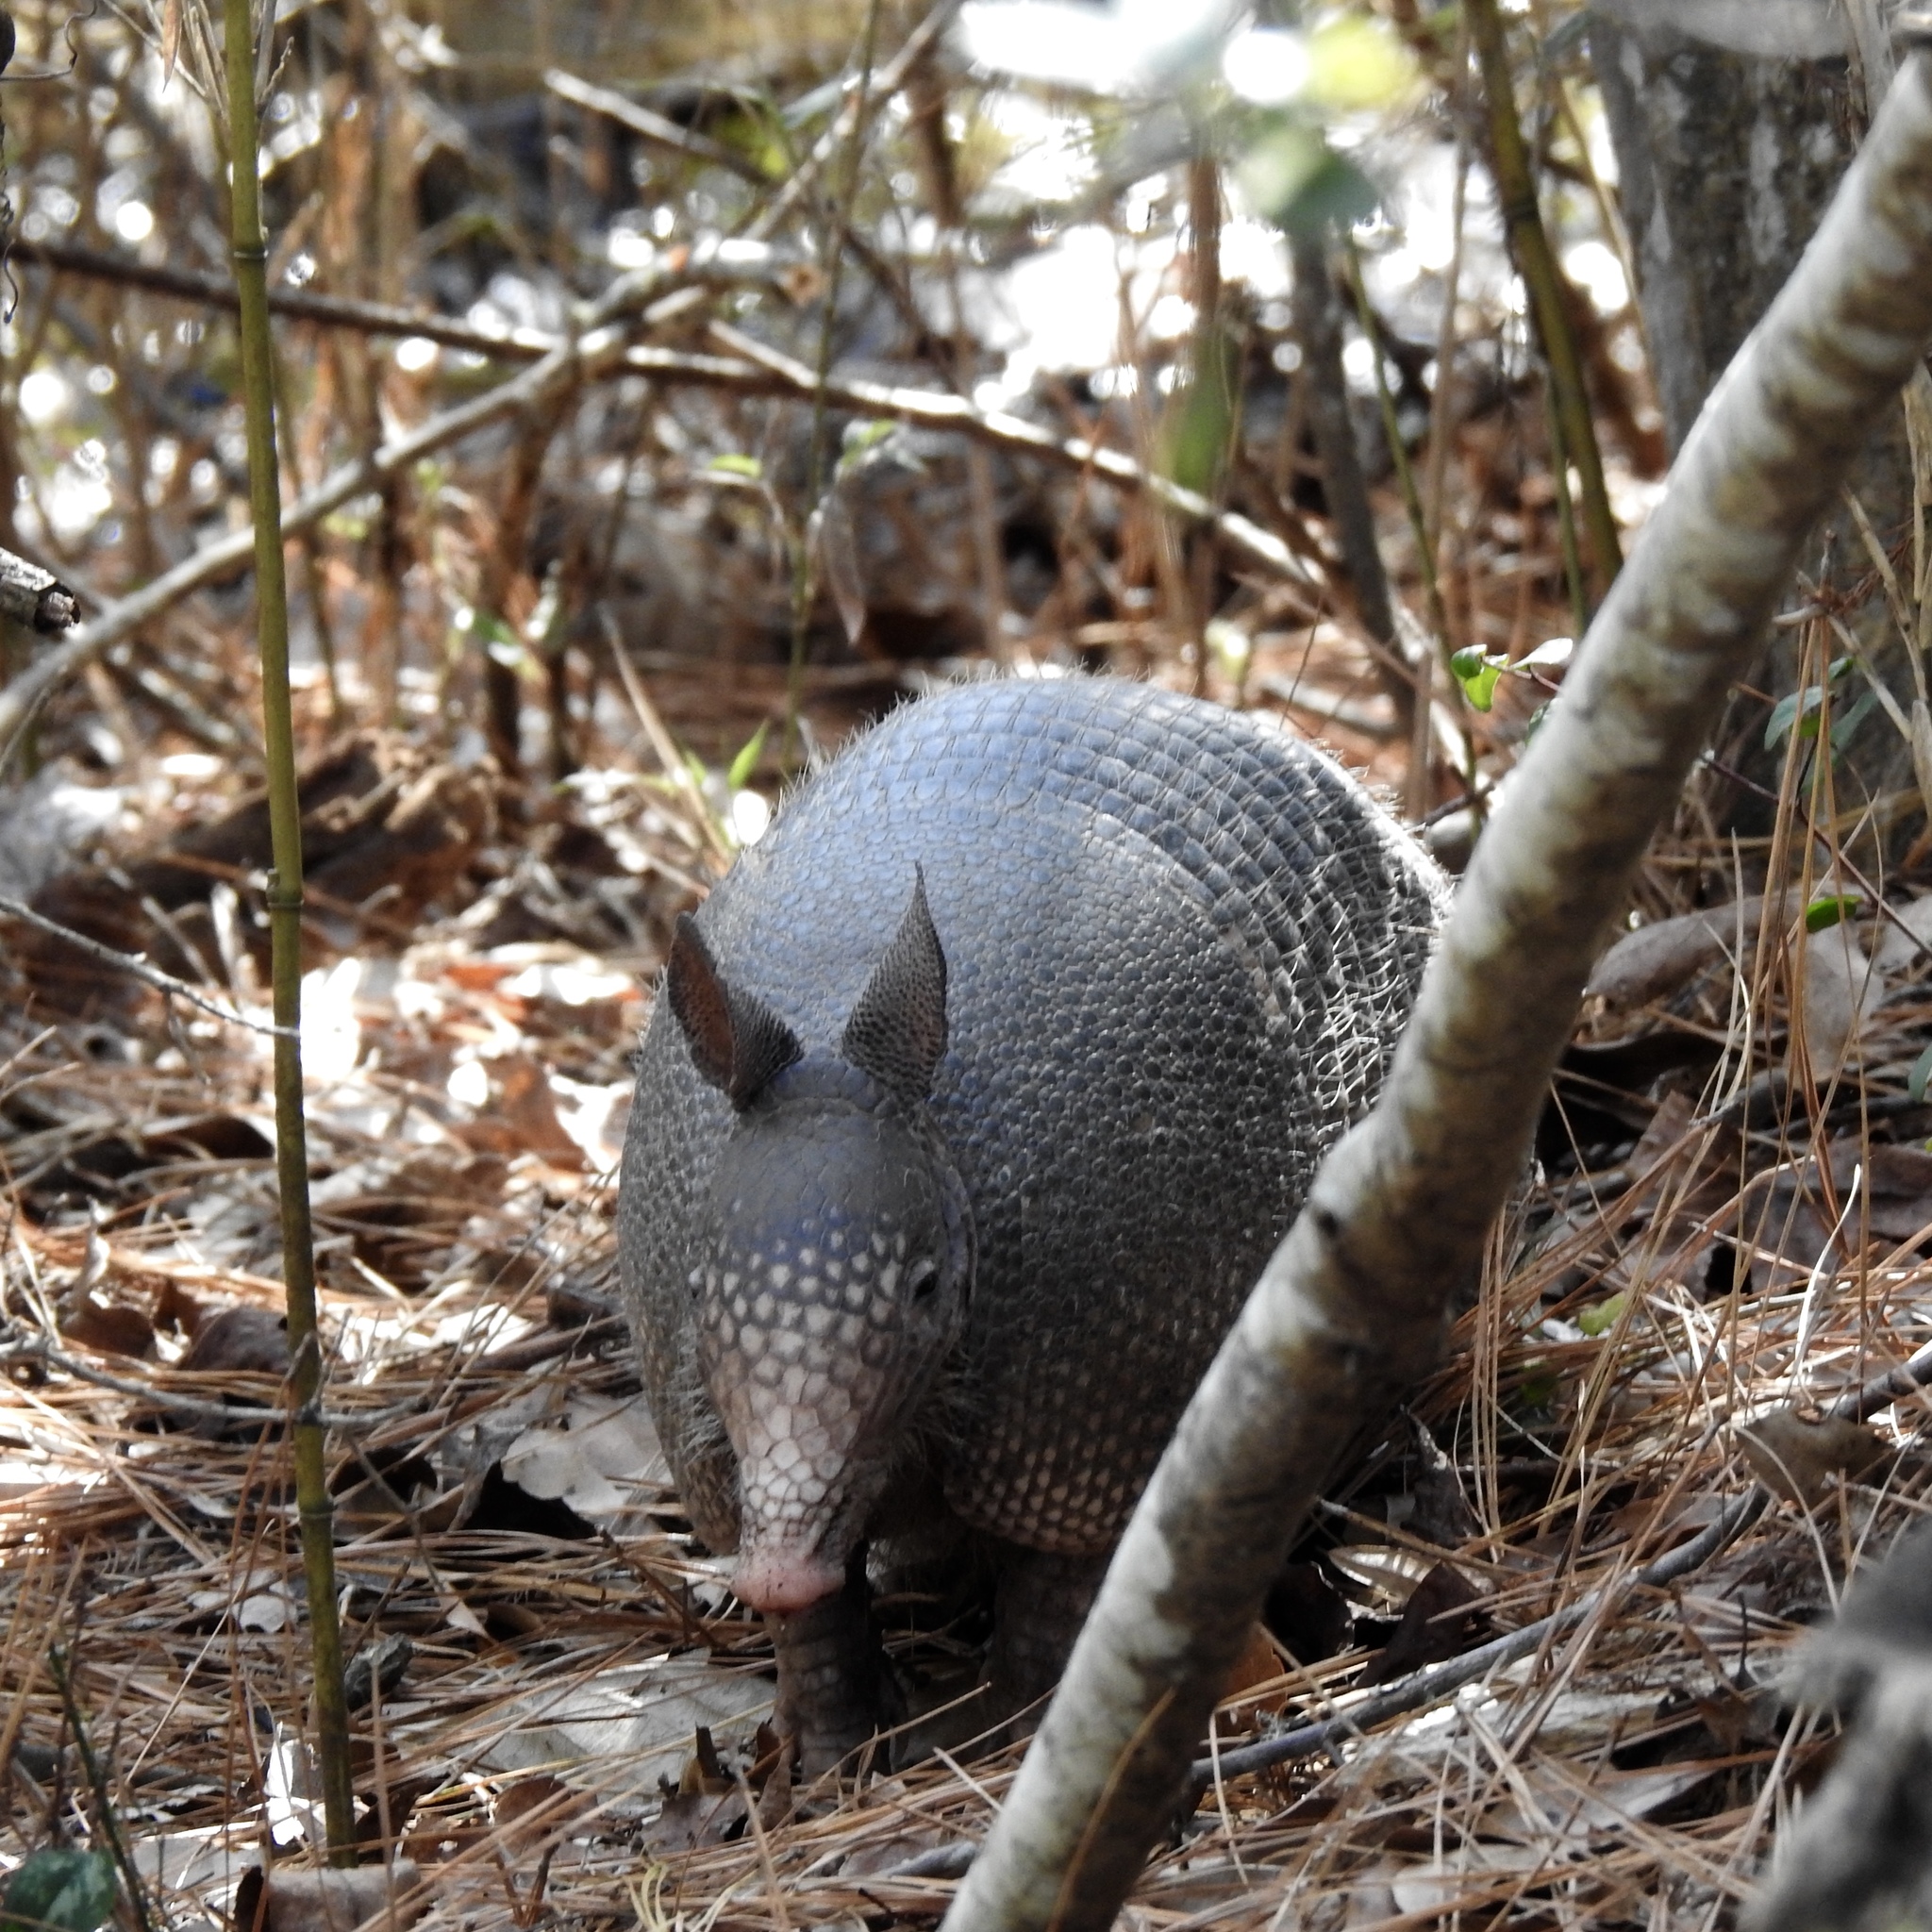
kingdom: Animalia
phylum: Chordata
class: Mammalia
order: Cingulata
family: Dasypodidae
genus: Dasypus
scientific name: Dasypus novemcinctus
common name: Nine-banded armadillo
